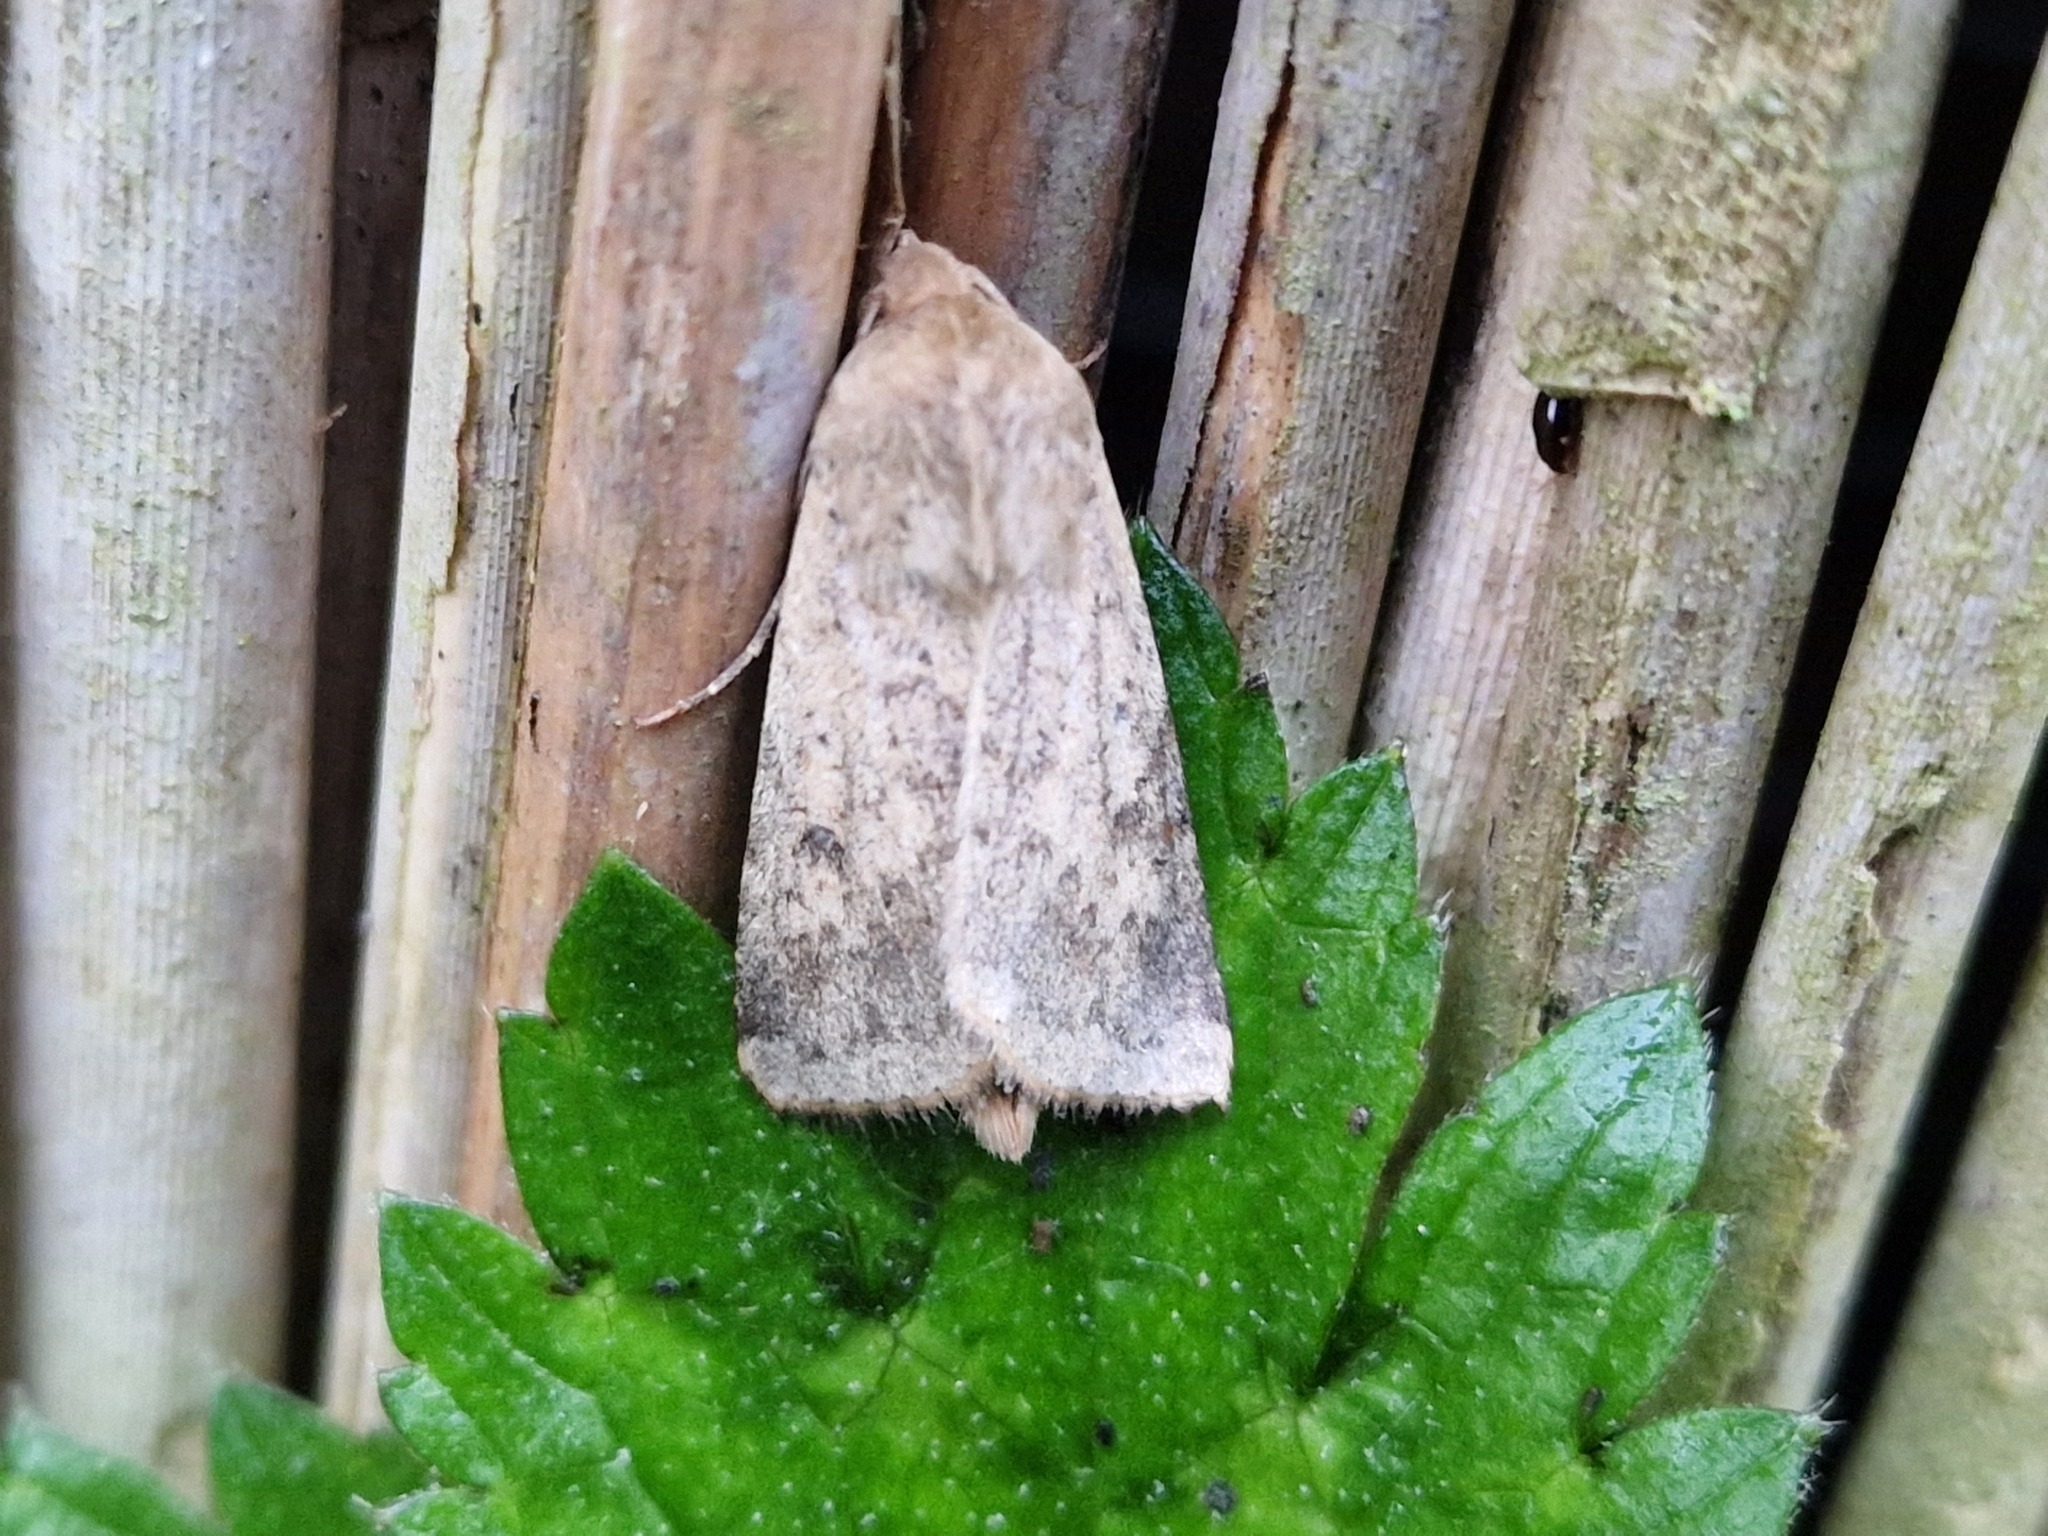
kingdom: Animalia
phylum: Arthropoda
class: Insecta
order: Lepidoptera
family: Noctuidae
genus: Helicoverpa
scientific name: Helicoverpa armigera
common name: Cotton bollworm
